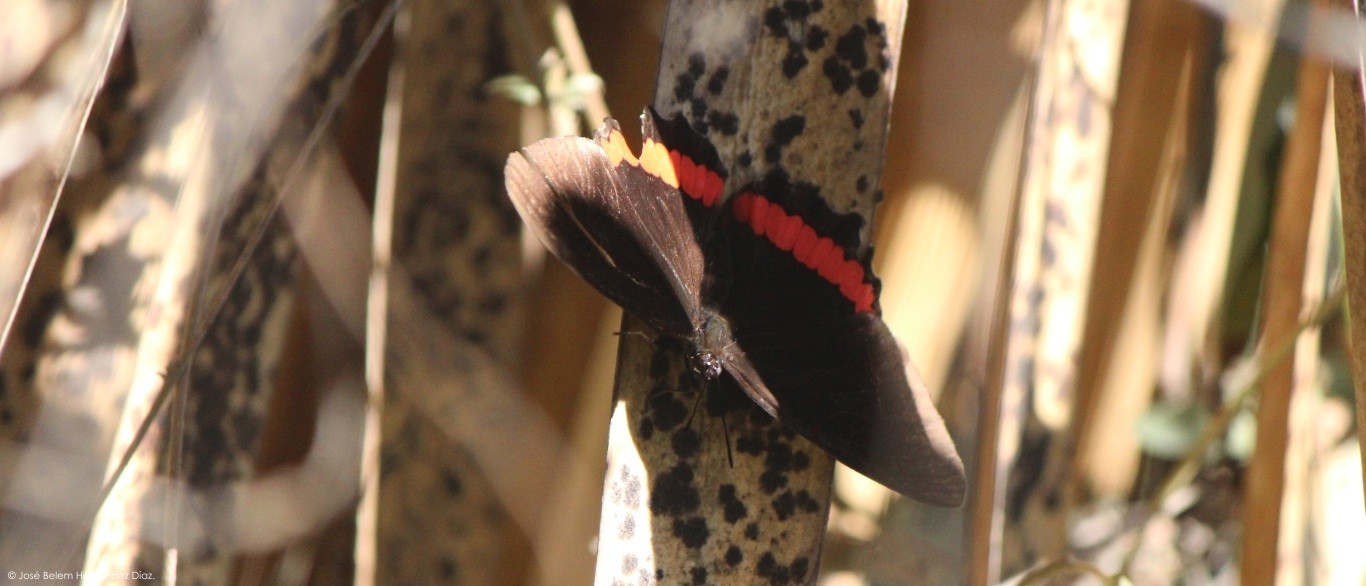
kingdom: Animalia
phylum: Arthropoda
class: Insecta
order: Lepidoptera
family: Nymphalidae
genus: Biblis
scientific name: Biblis aganisa
